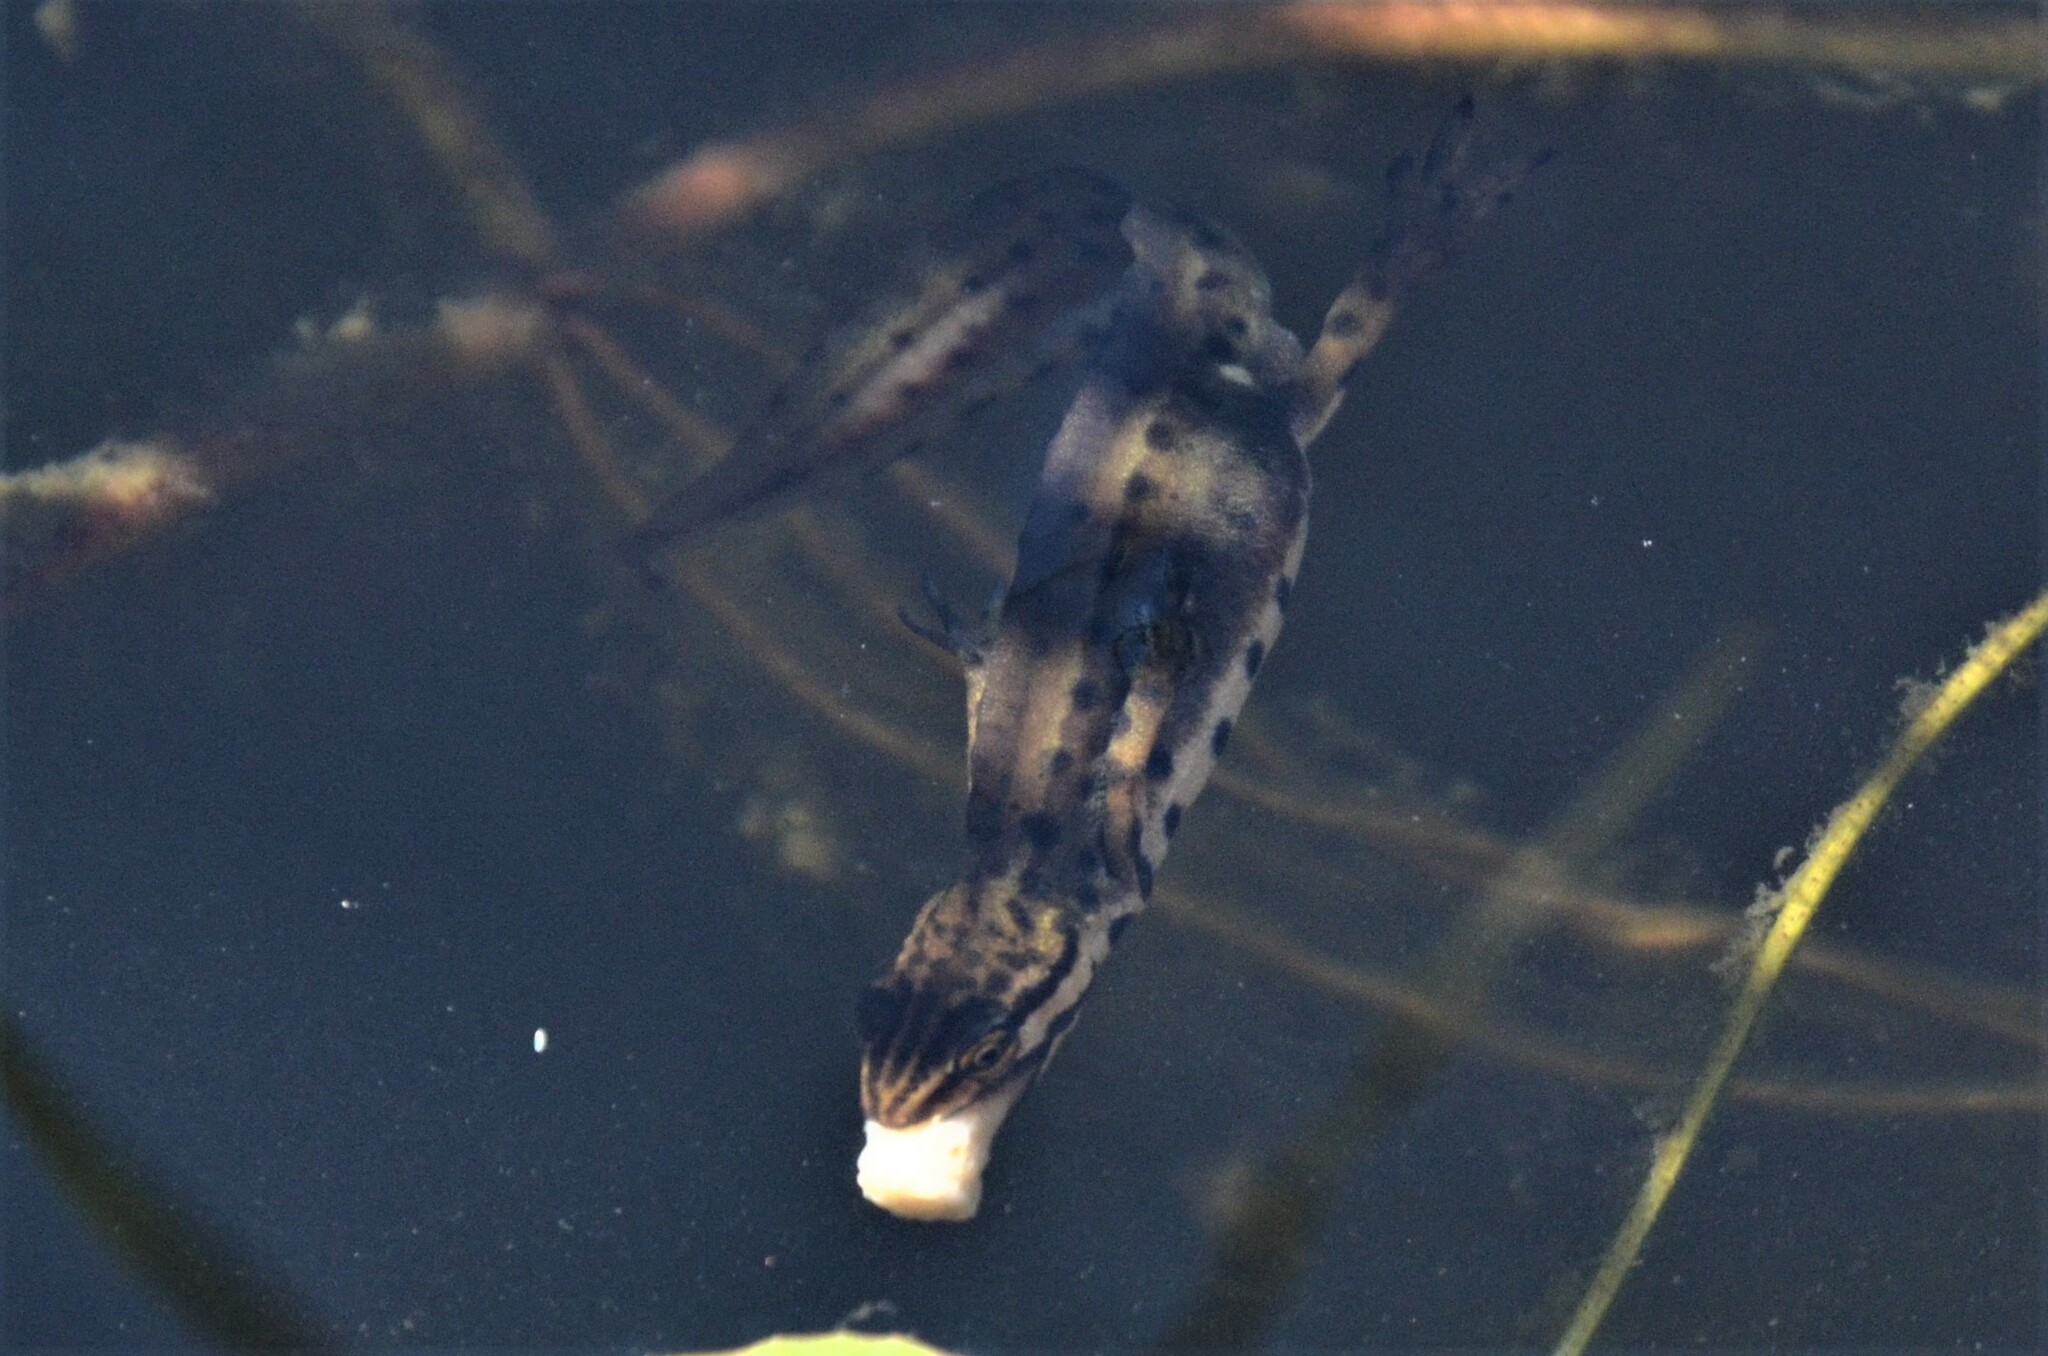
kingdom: Animalia
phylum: Chordata
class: Amphibia
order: Caudata
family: Salamandridae
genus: Lissotriton
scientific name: Lissotriton vulgaris
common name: Smooth newt
